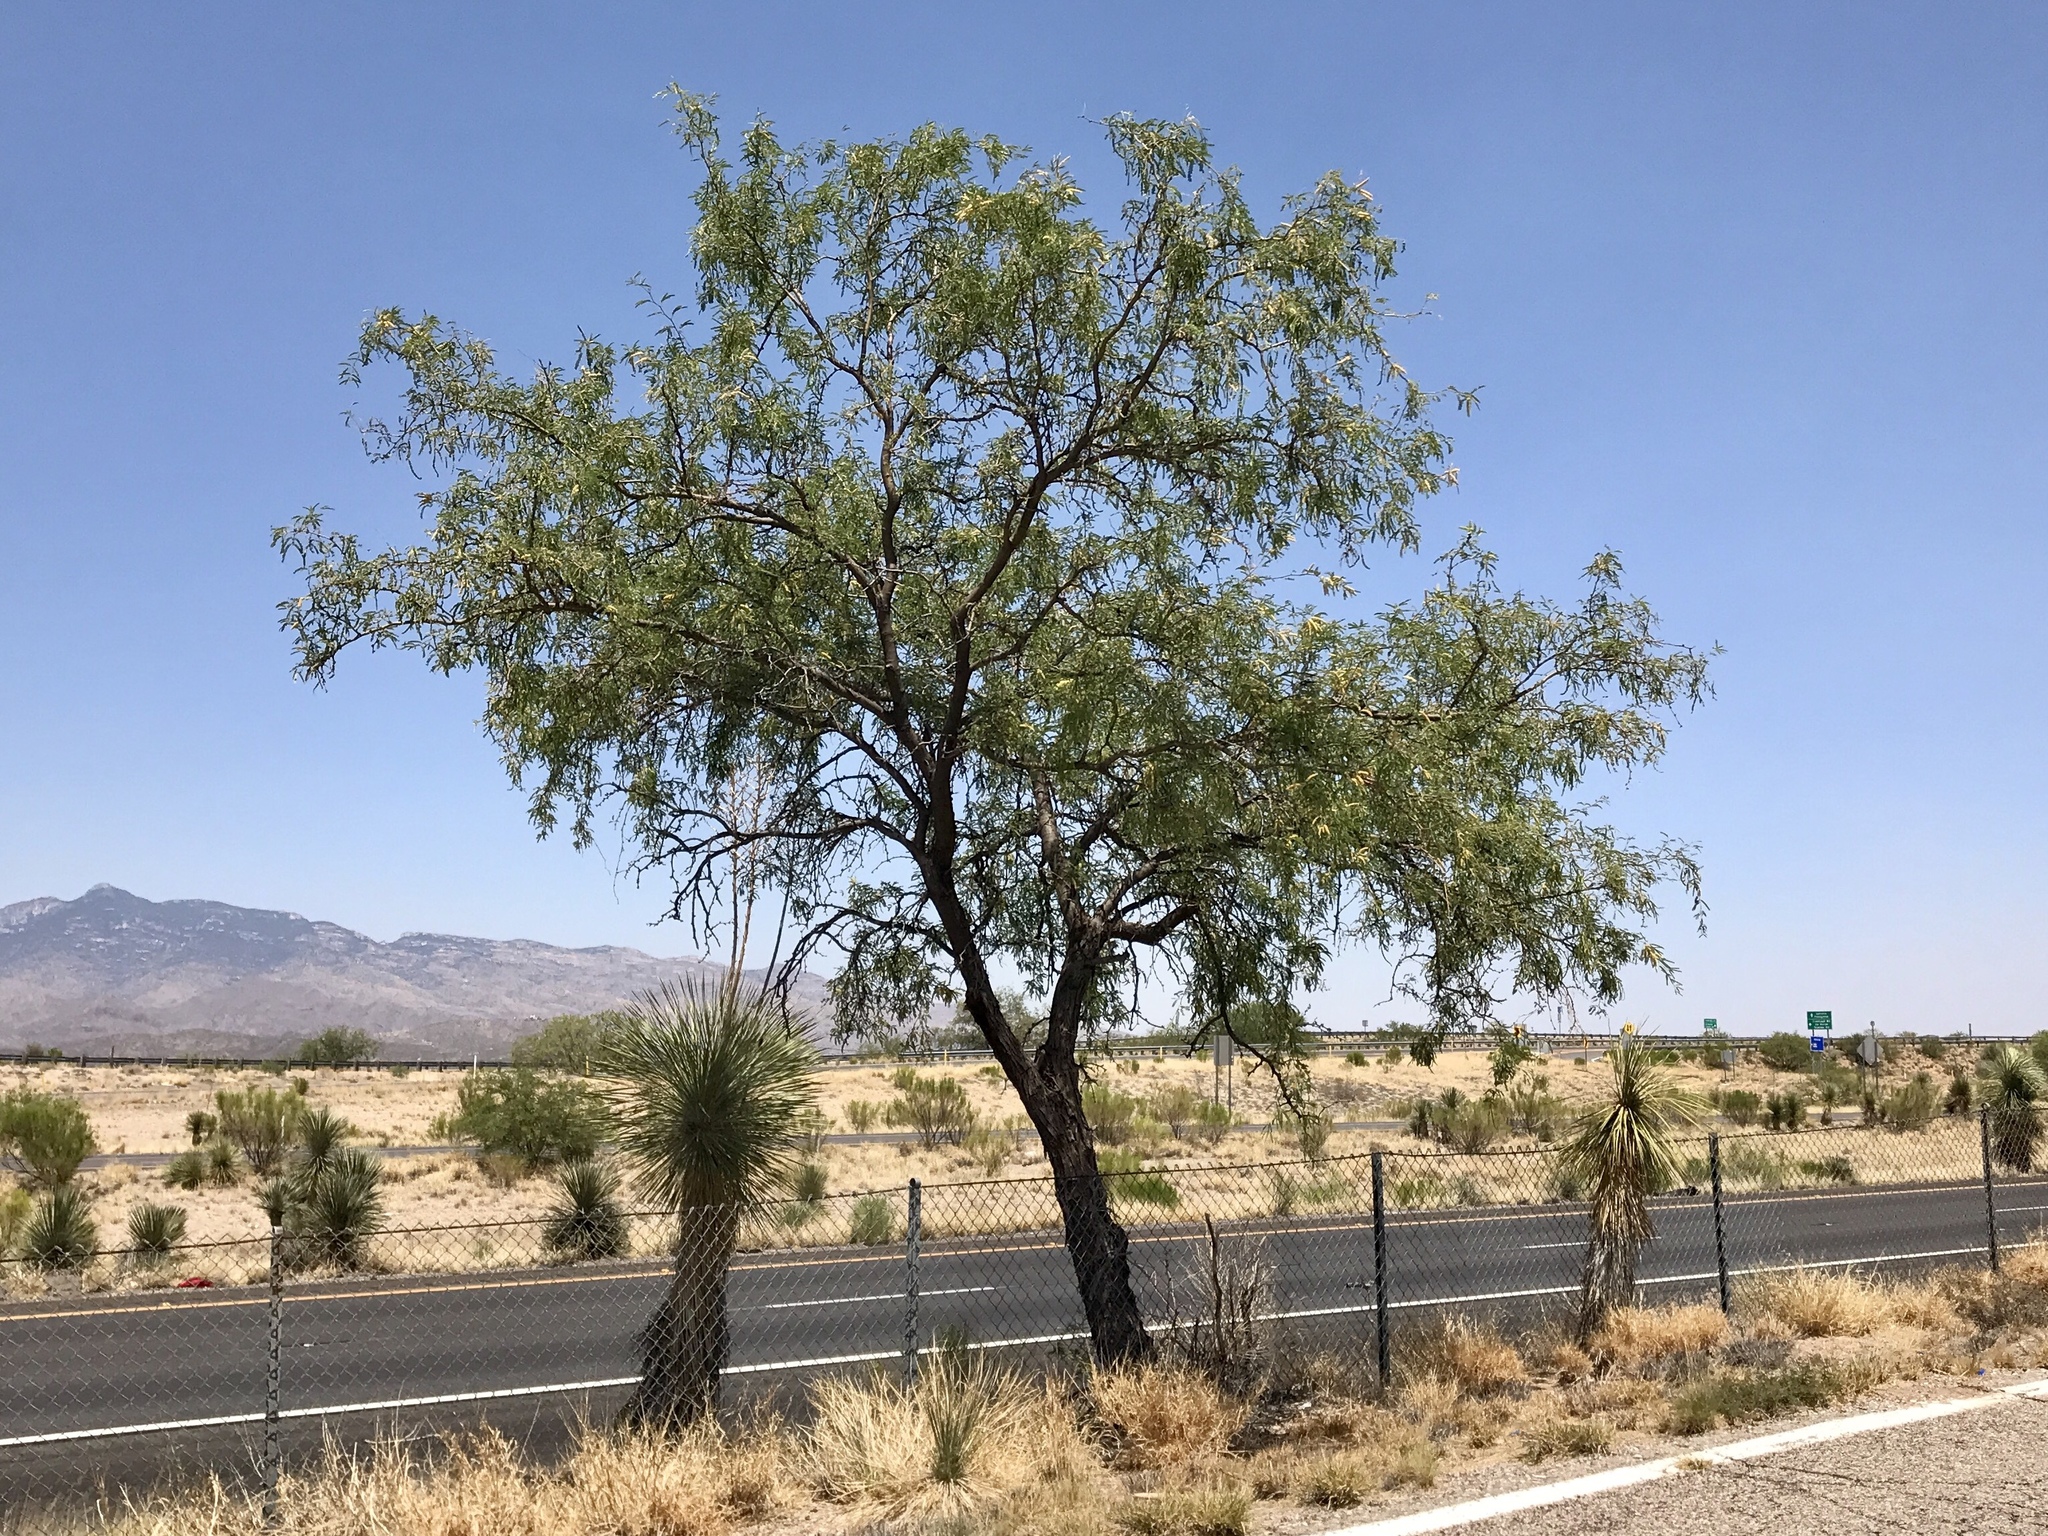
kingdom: Plantae
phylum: Tracheophyta
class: Magnoliopsida
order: Fabales
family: Fabaceae
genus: Prosopis
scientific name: Prosopis velutina
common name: Velvet mesquite
